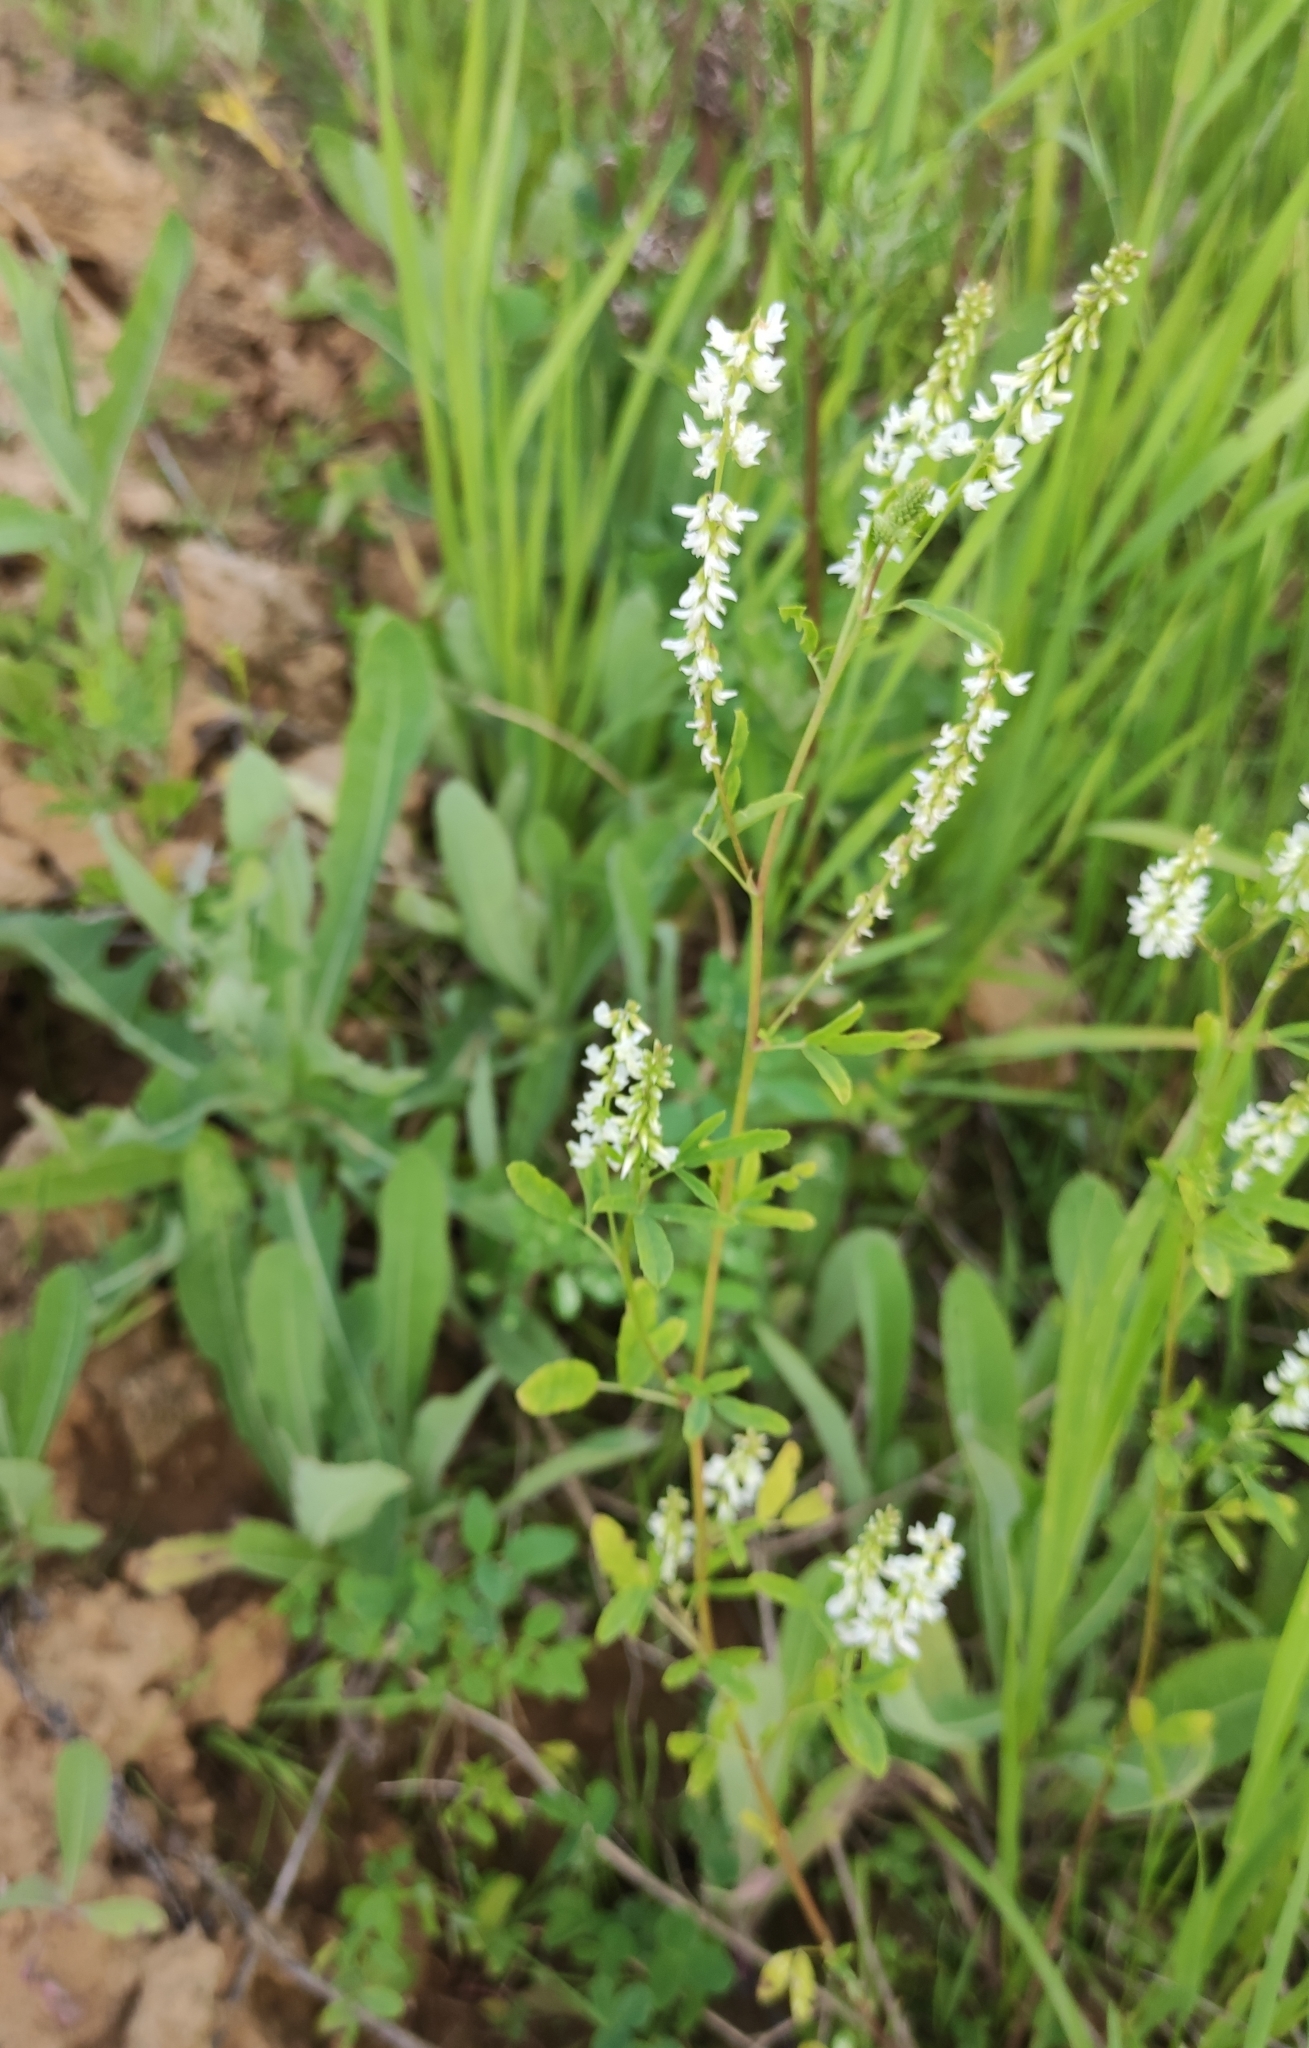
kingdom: Plantae
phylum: Tracheophyta
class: Magnoliopsida
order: Fabales
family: Fabaceae
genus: Melilotus
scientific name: Melilotus albus
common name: White melilot
